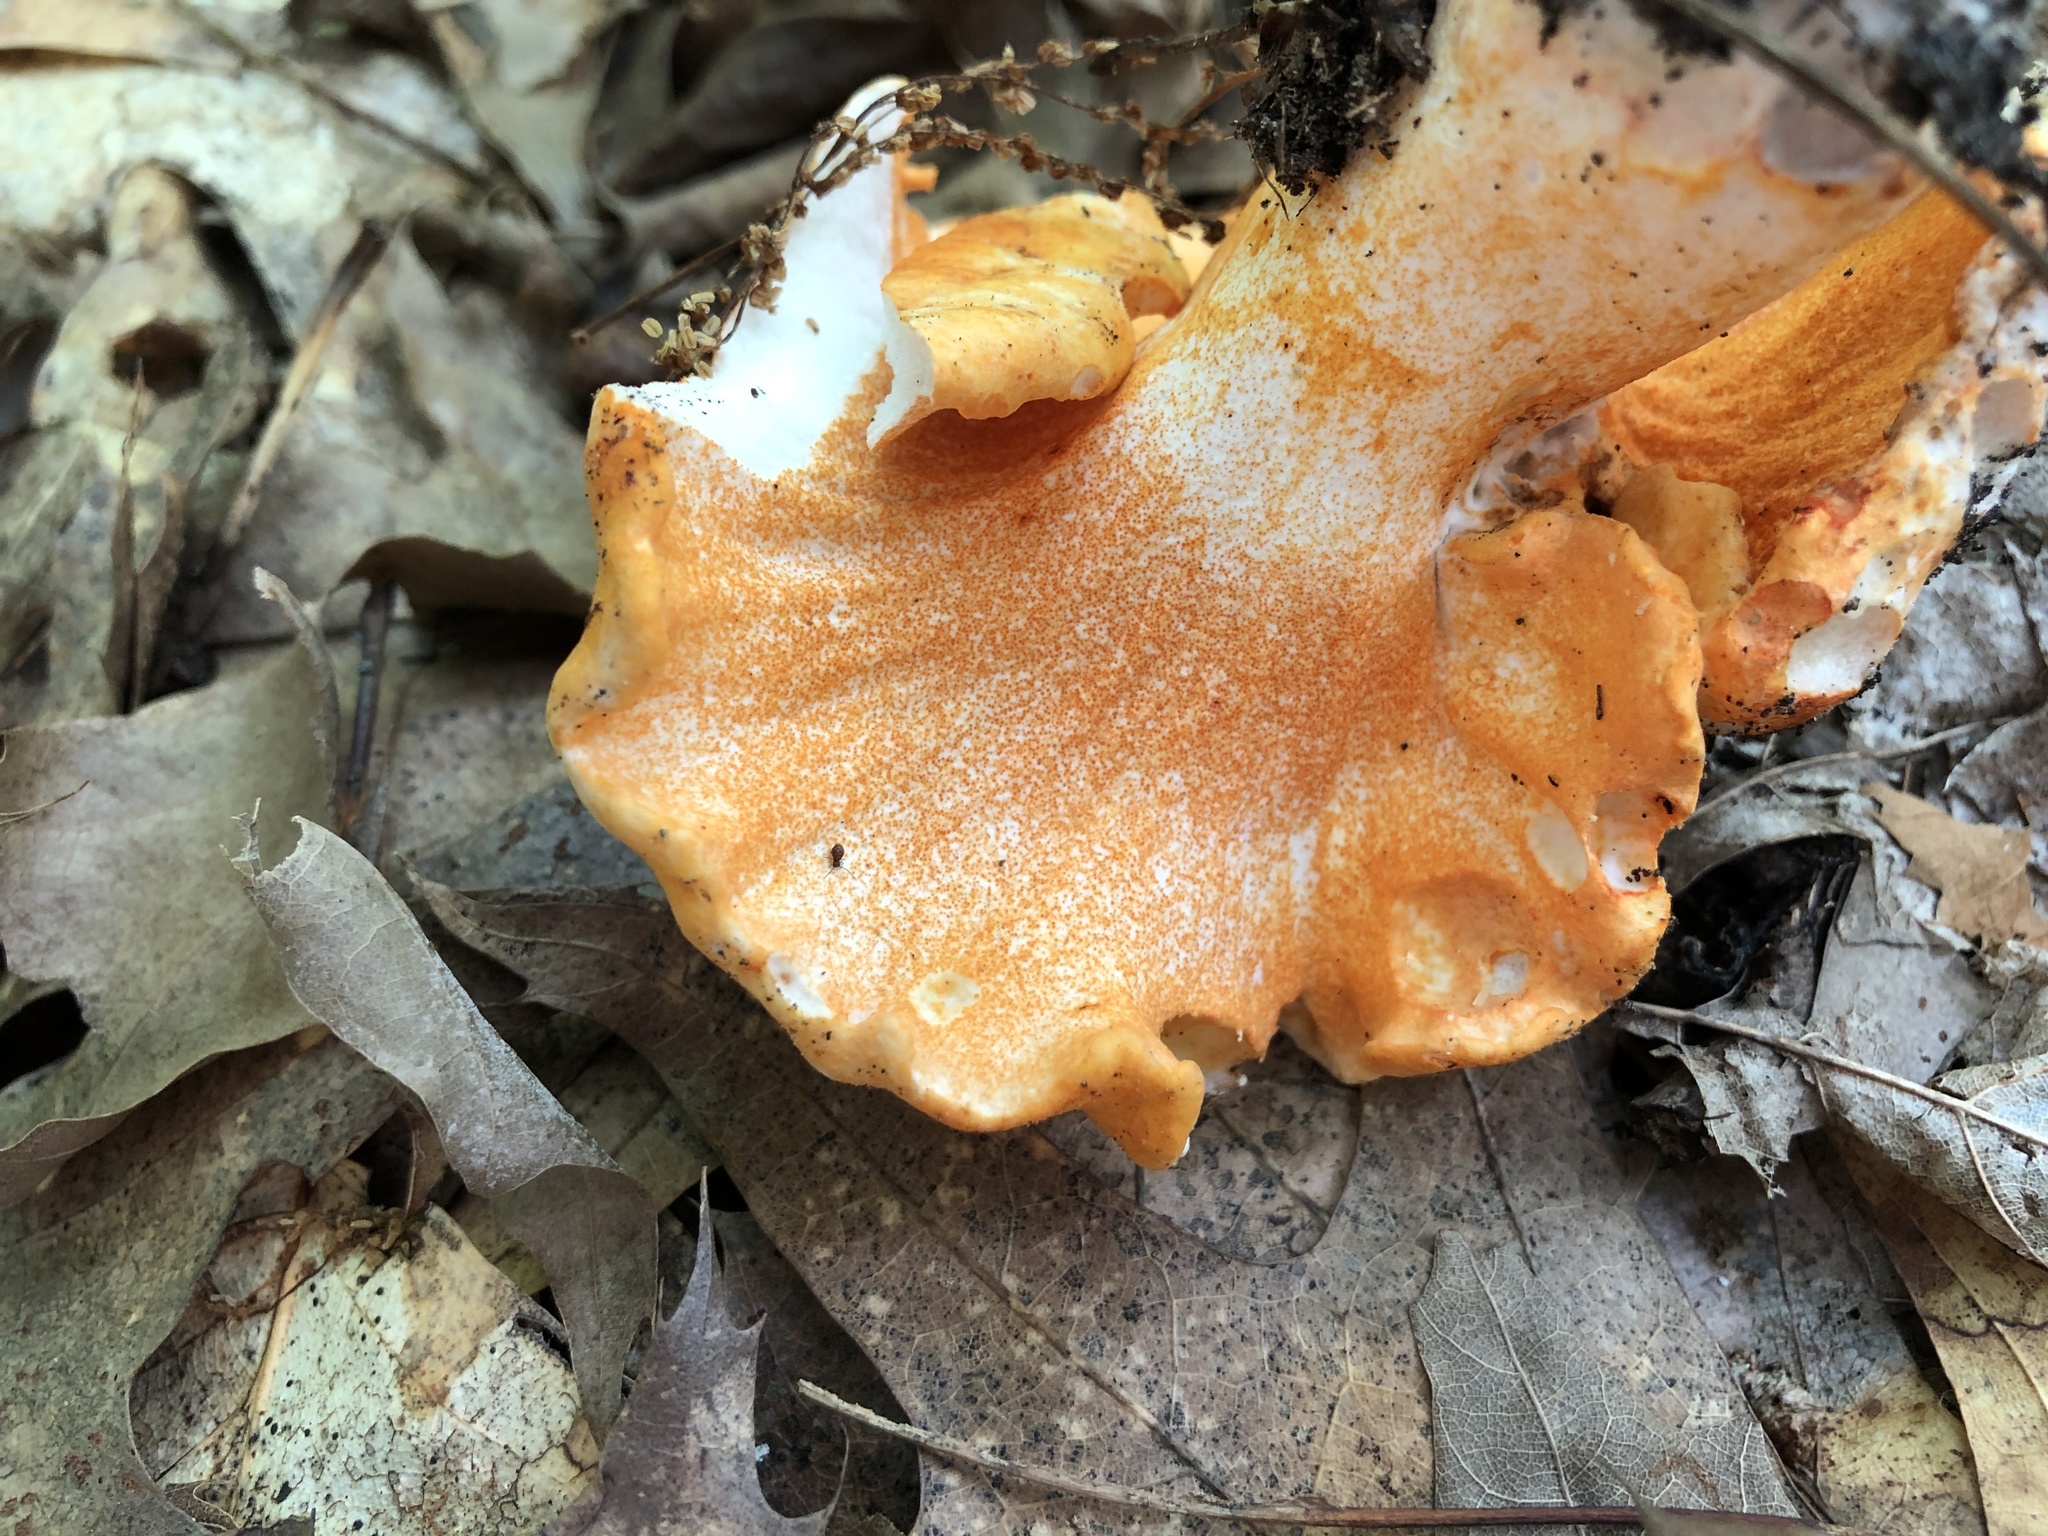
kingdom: Fungi
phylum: Ascomycota
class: Sordariomycetes
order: Hypocreales
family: Hypocreaceae
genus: Hypomyces
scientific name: Hypomyces lactifluorum
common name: Lobster mushroom
